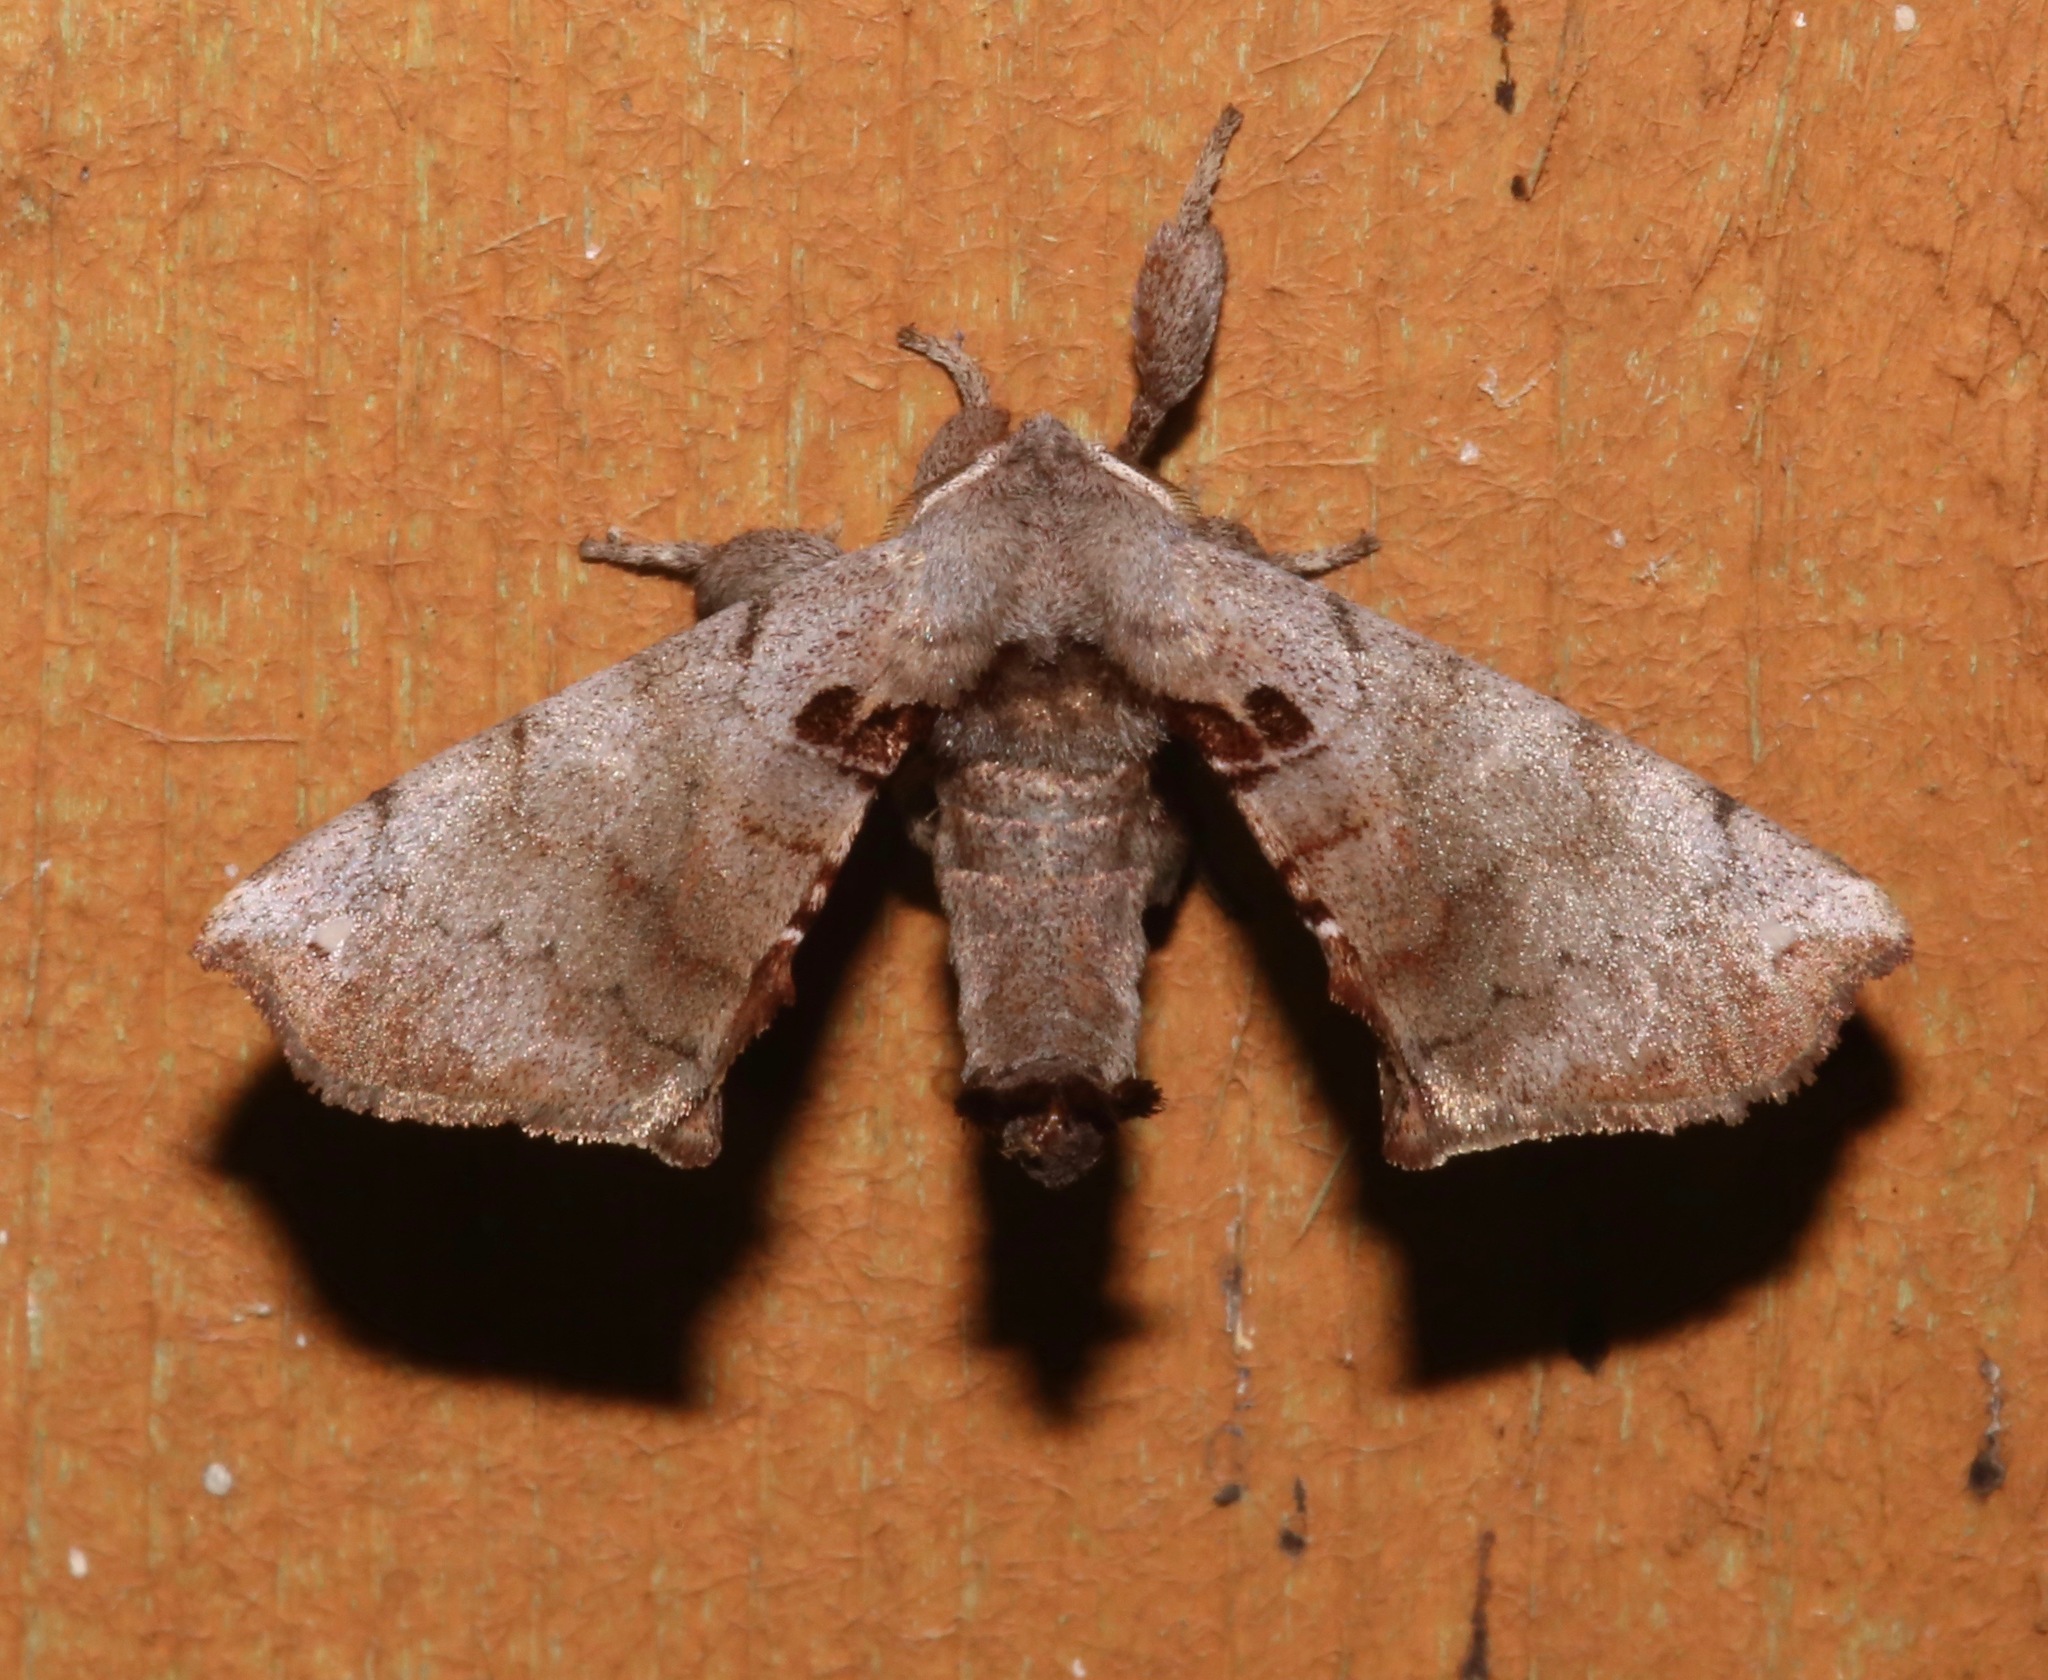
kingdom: Animalia
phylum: Arthropoda
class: Insecta
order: Lepidoptera
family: Apatelodidae
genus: Hygrochroa
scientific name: Hygrochroa Apatelodes torrefacta
